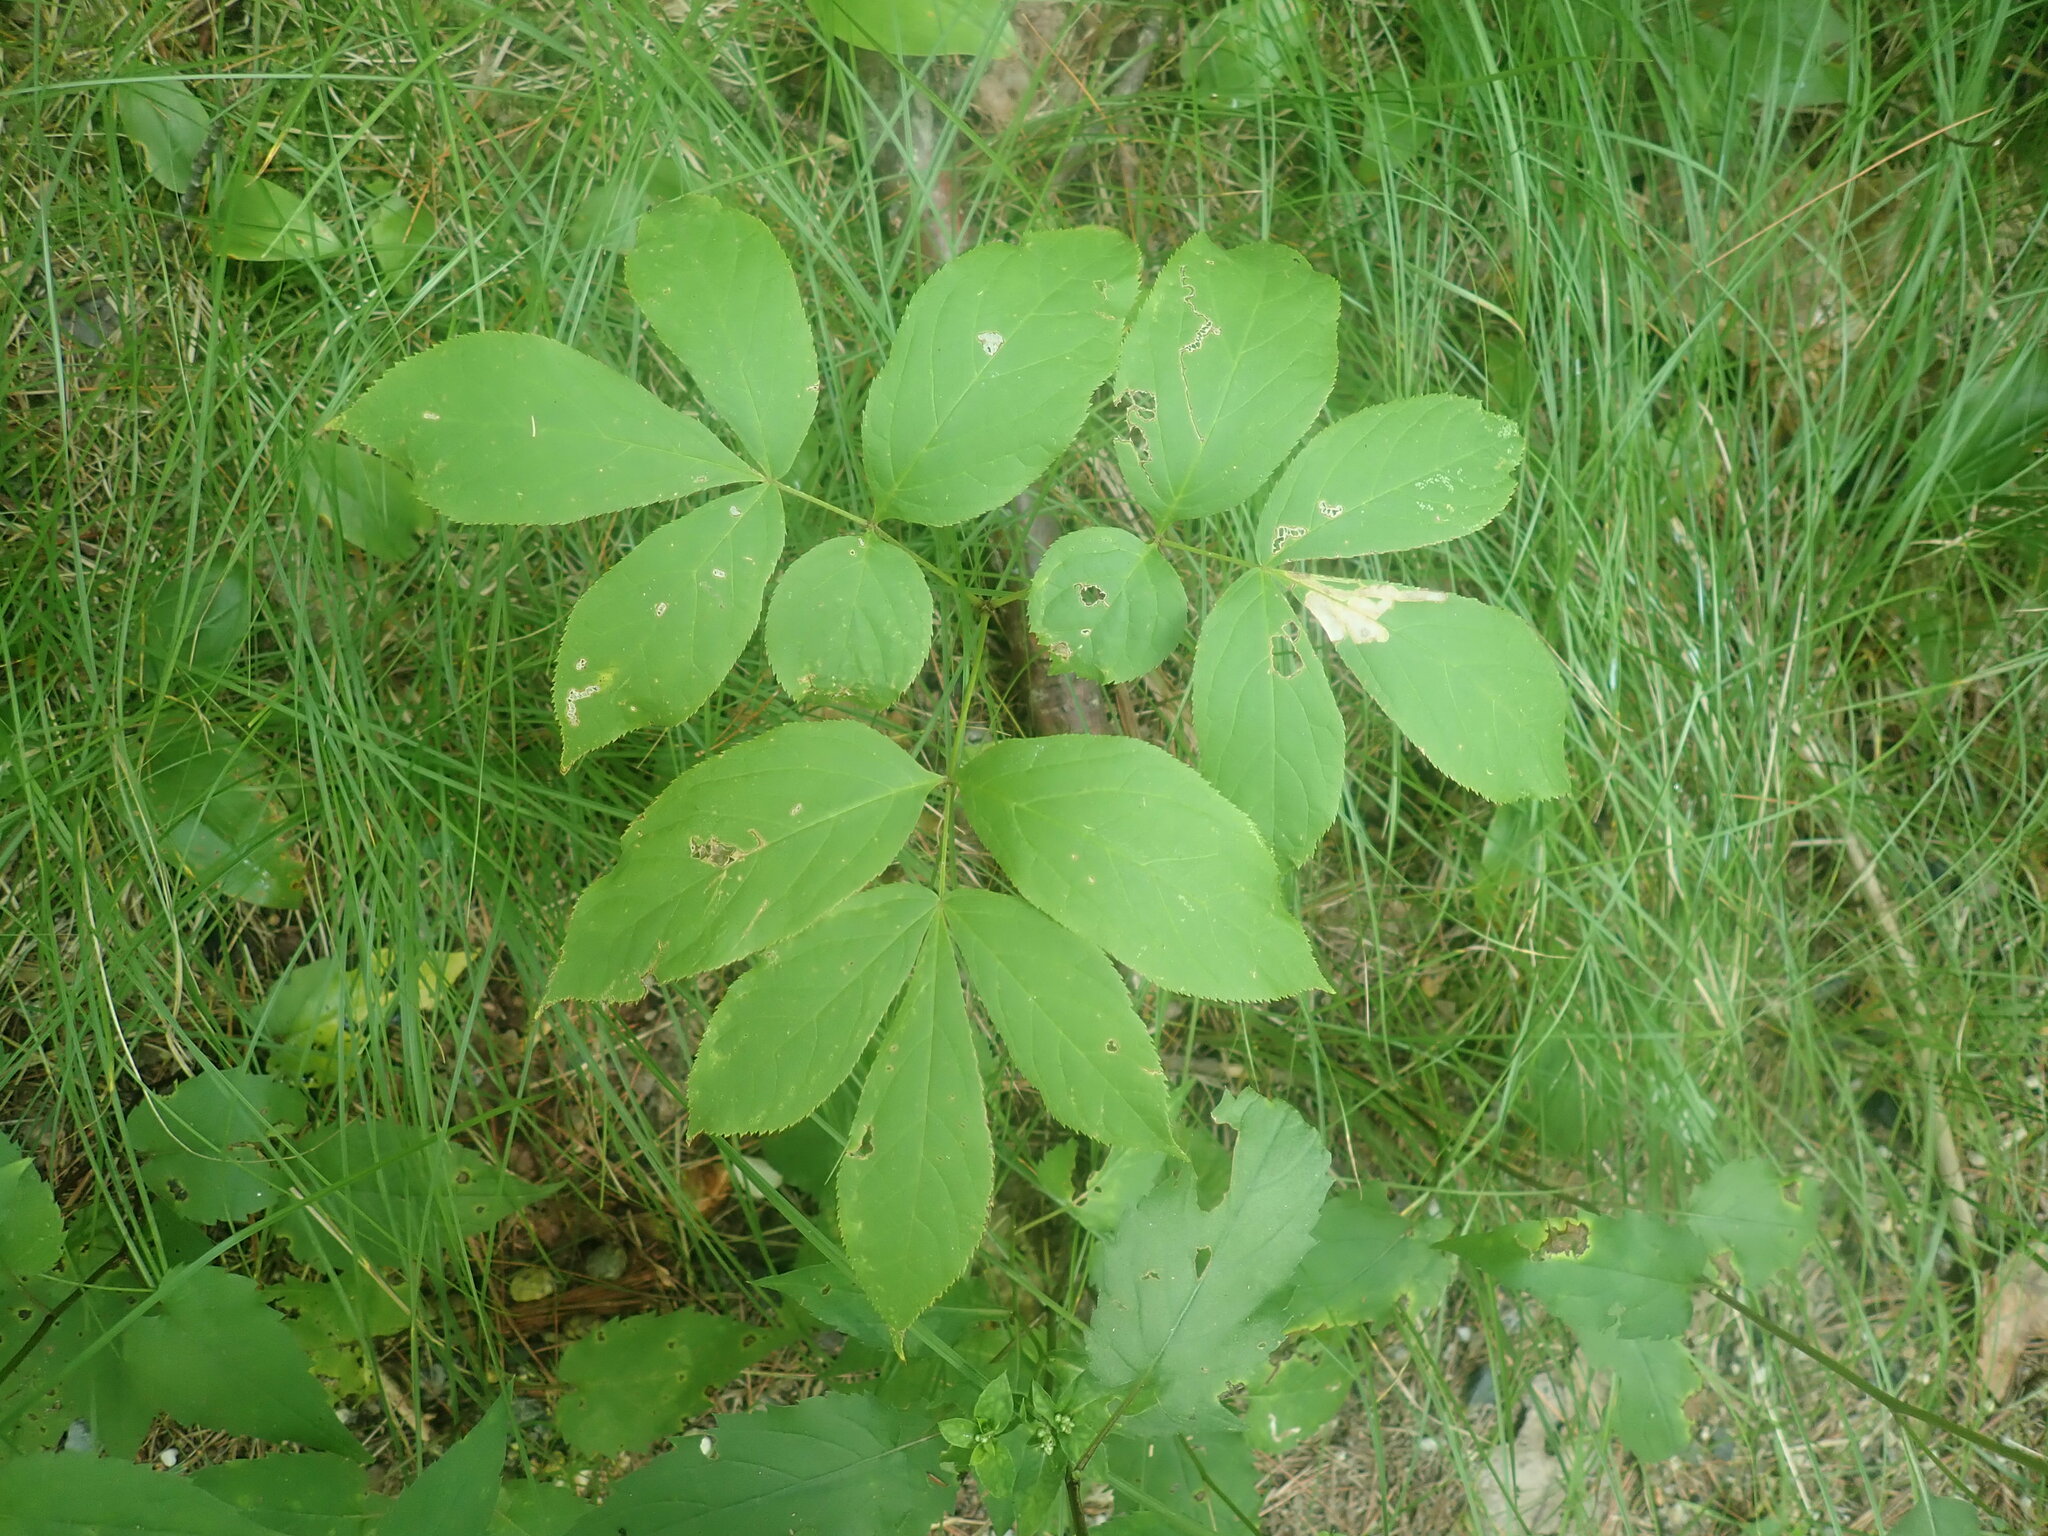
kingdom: Plantae
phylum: Tracheophyta
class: Magnoliopsida
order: Apiales
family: Araliaceae
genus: Aralia
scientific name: Aralia nudicaulis
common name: Wild sarsaparilla
